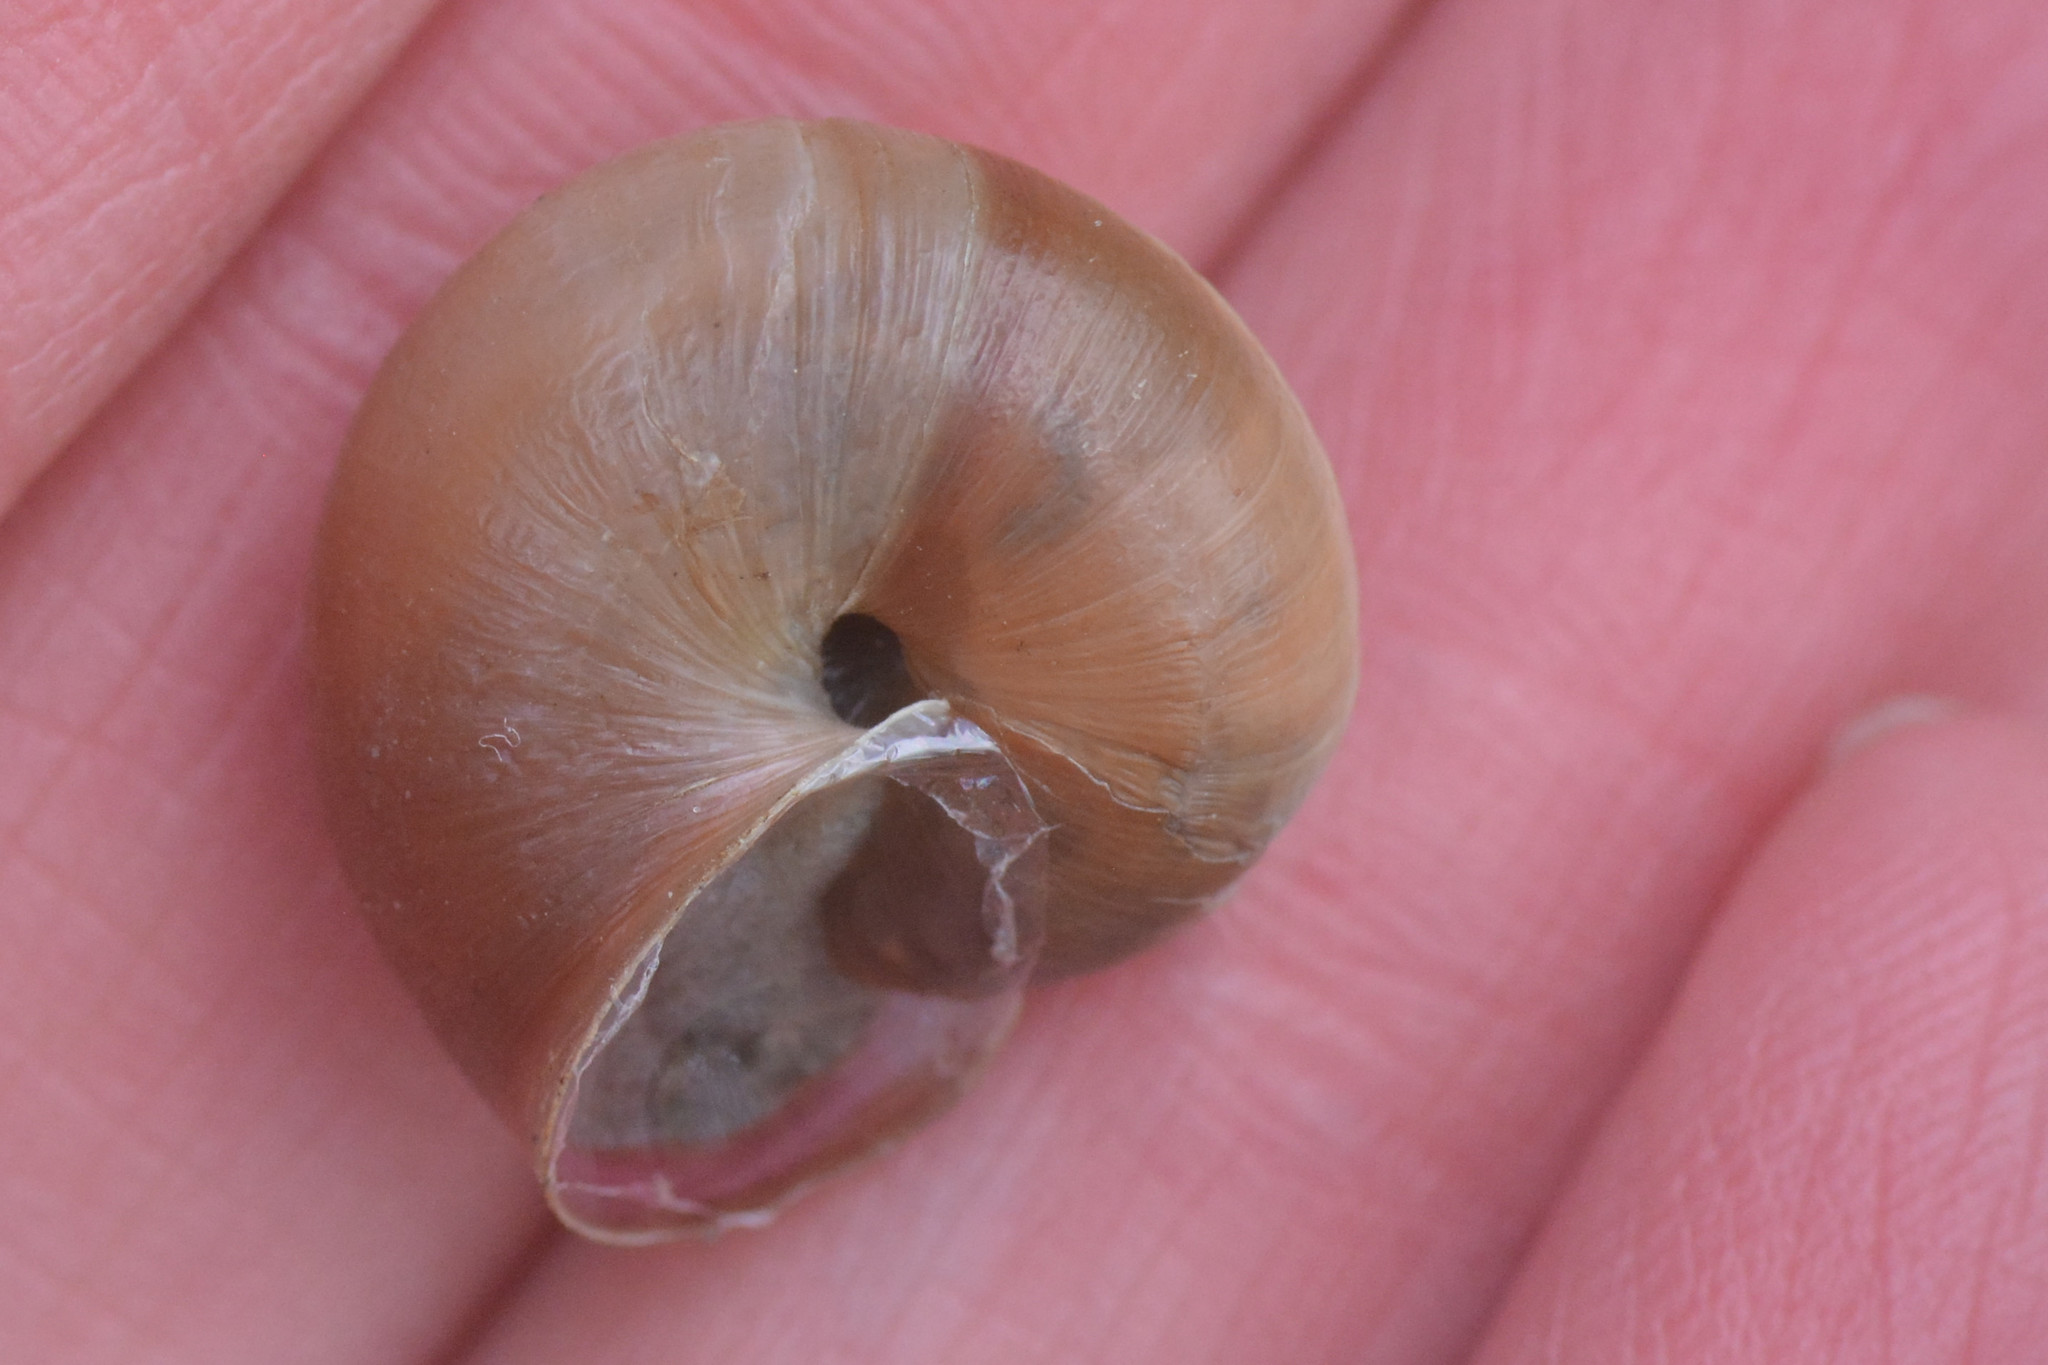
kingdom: Animalia
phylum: Mollusca
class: Gastropoda
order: Stylommatophora
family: Hygromiidae
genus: Monacha
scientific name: Monacha cantiana
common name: Kentish snail
